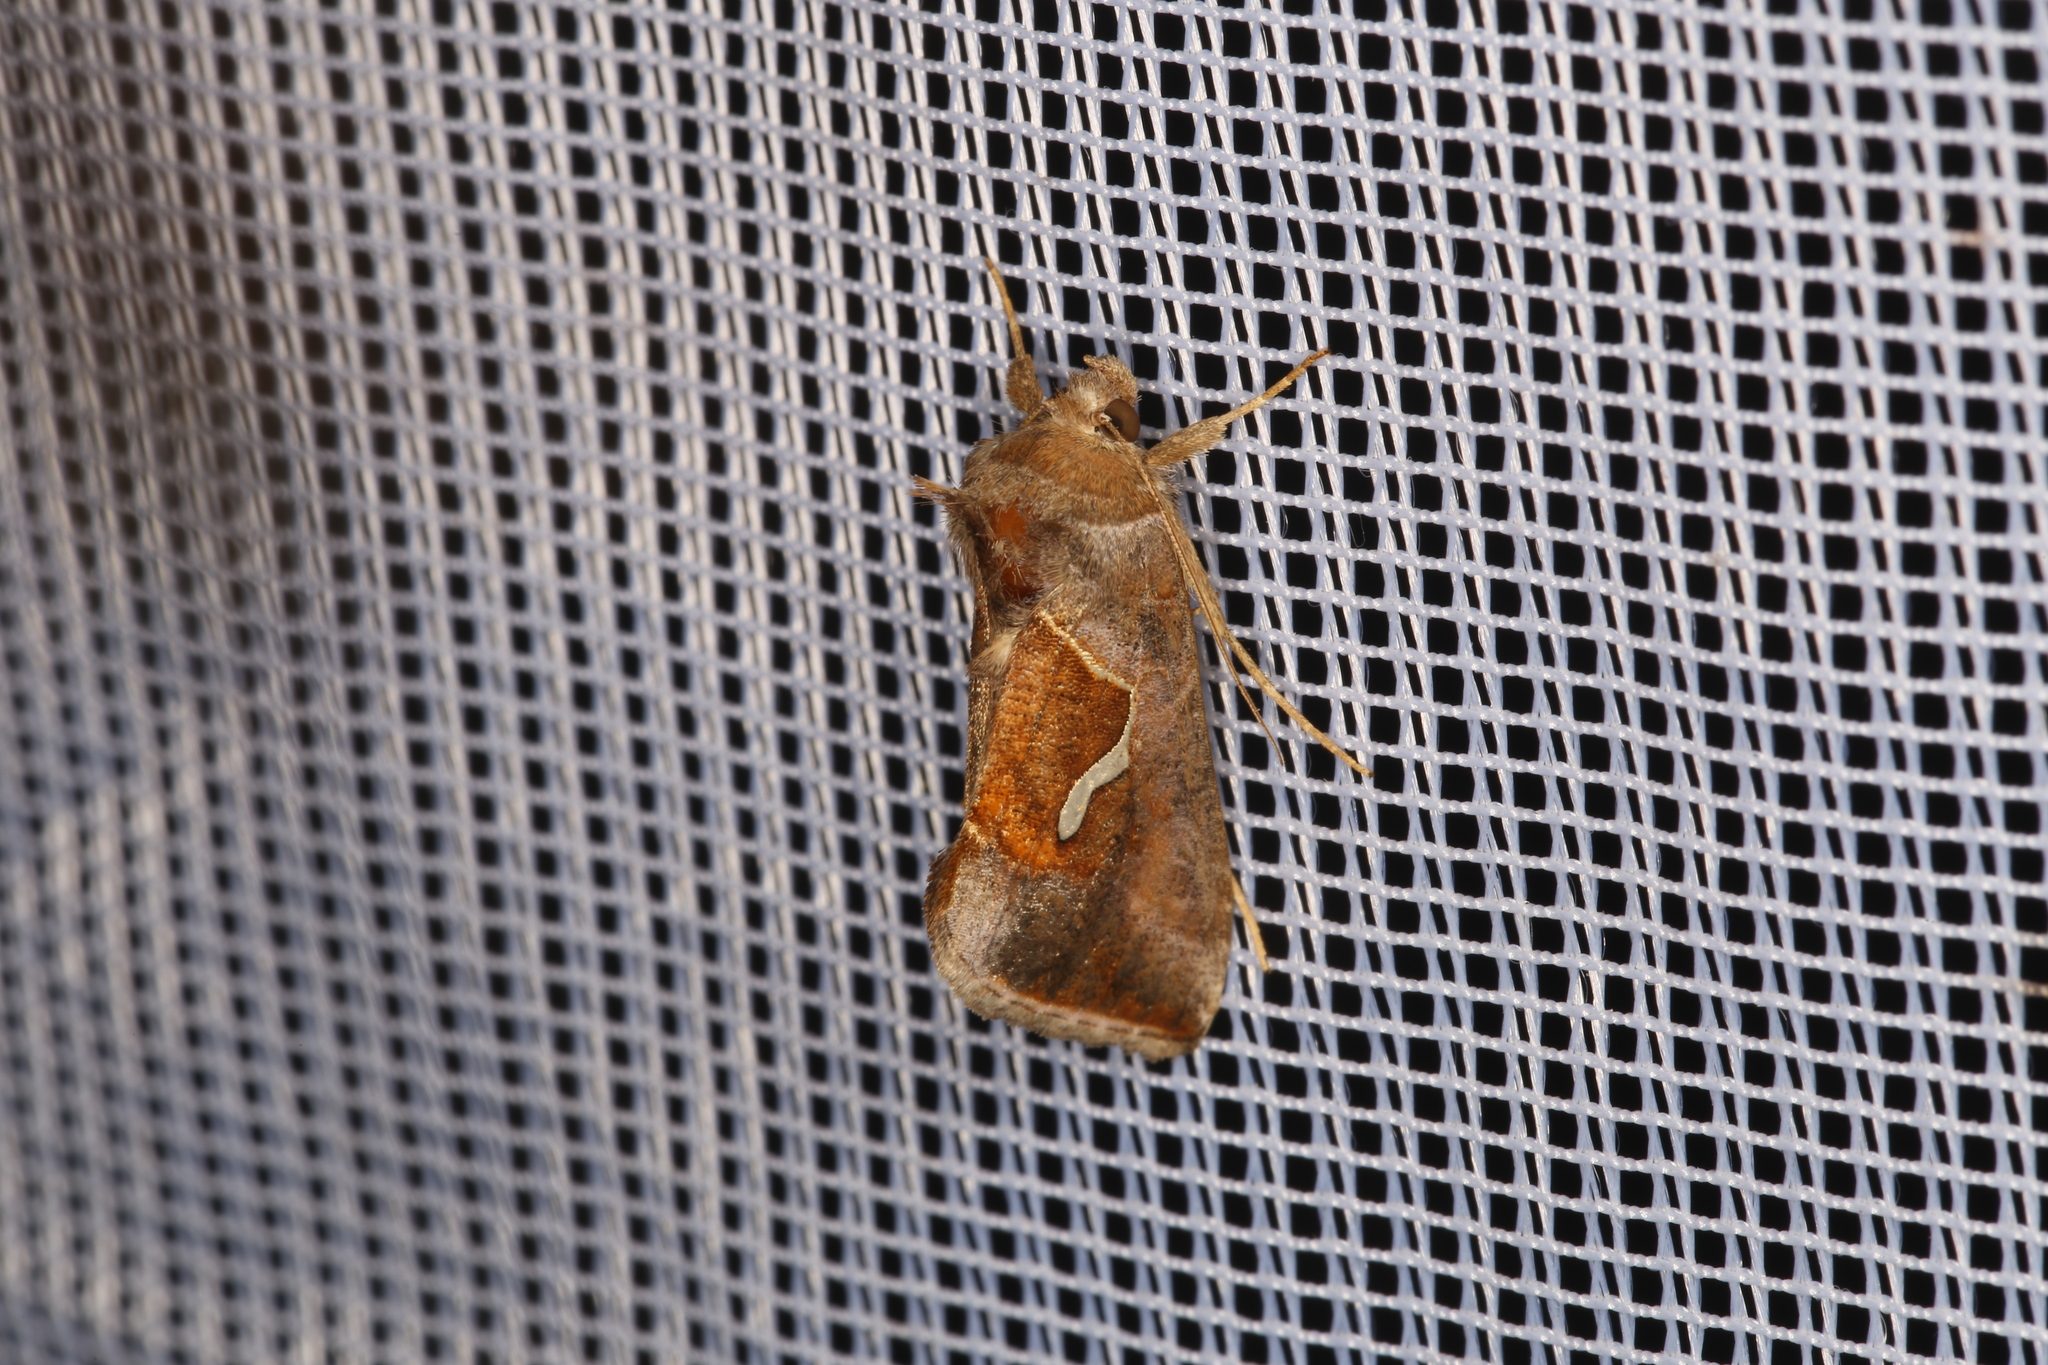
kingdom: Animalia
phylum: Arthropoda
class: Insecta
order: Lepidoptera
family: Noctuidae
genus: Macdunnoughia
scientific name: Macdunnoughia confusa
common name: Dewick's plusia
